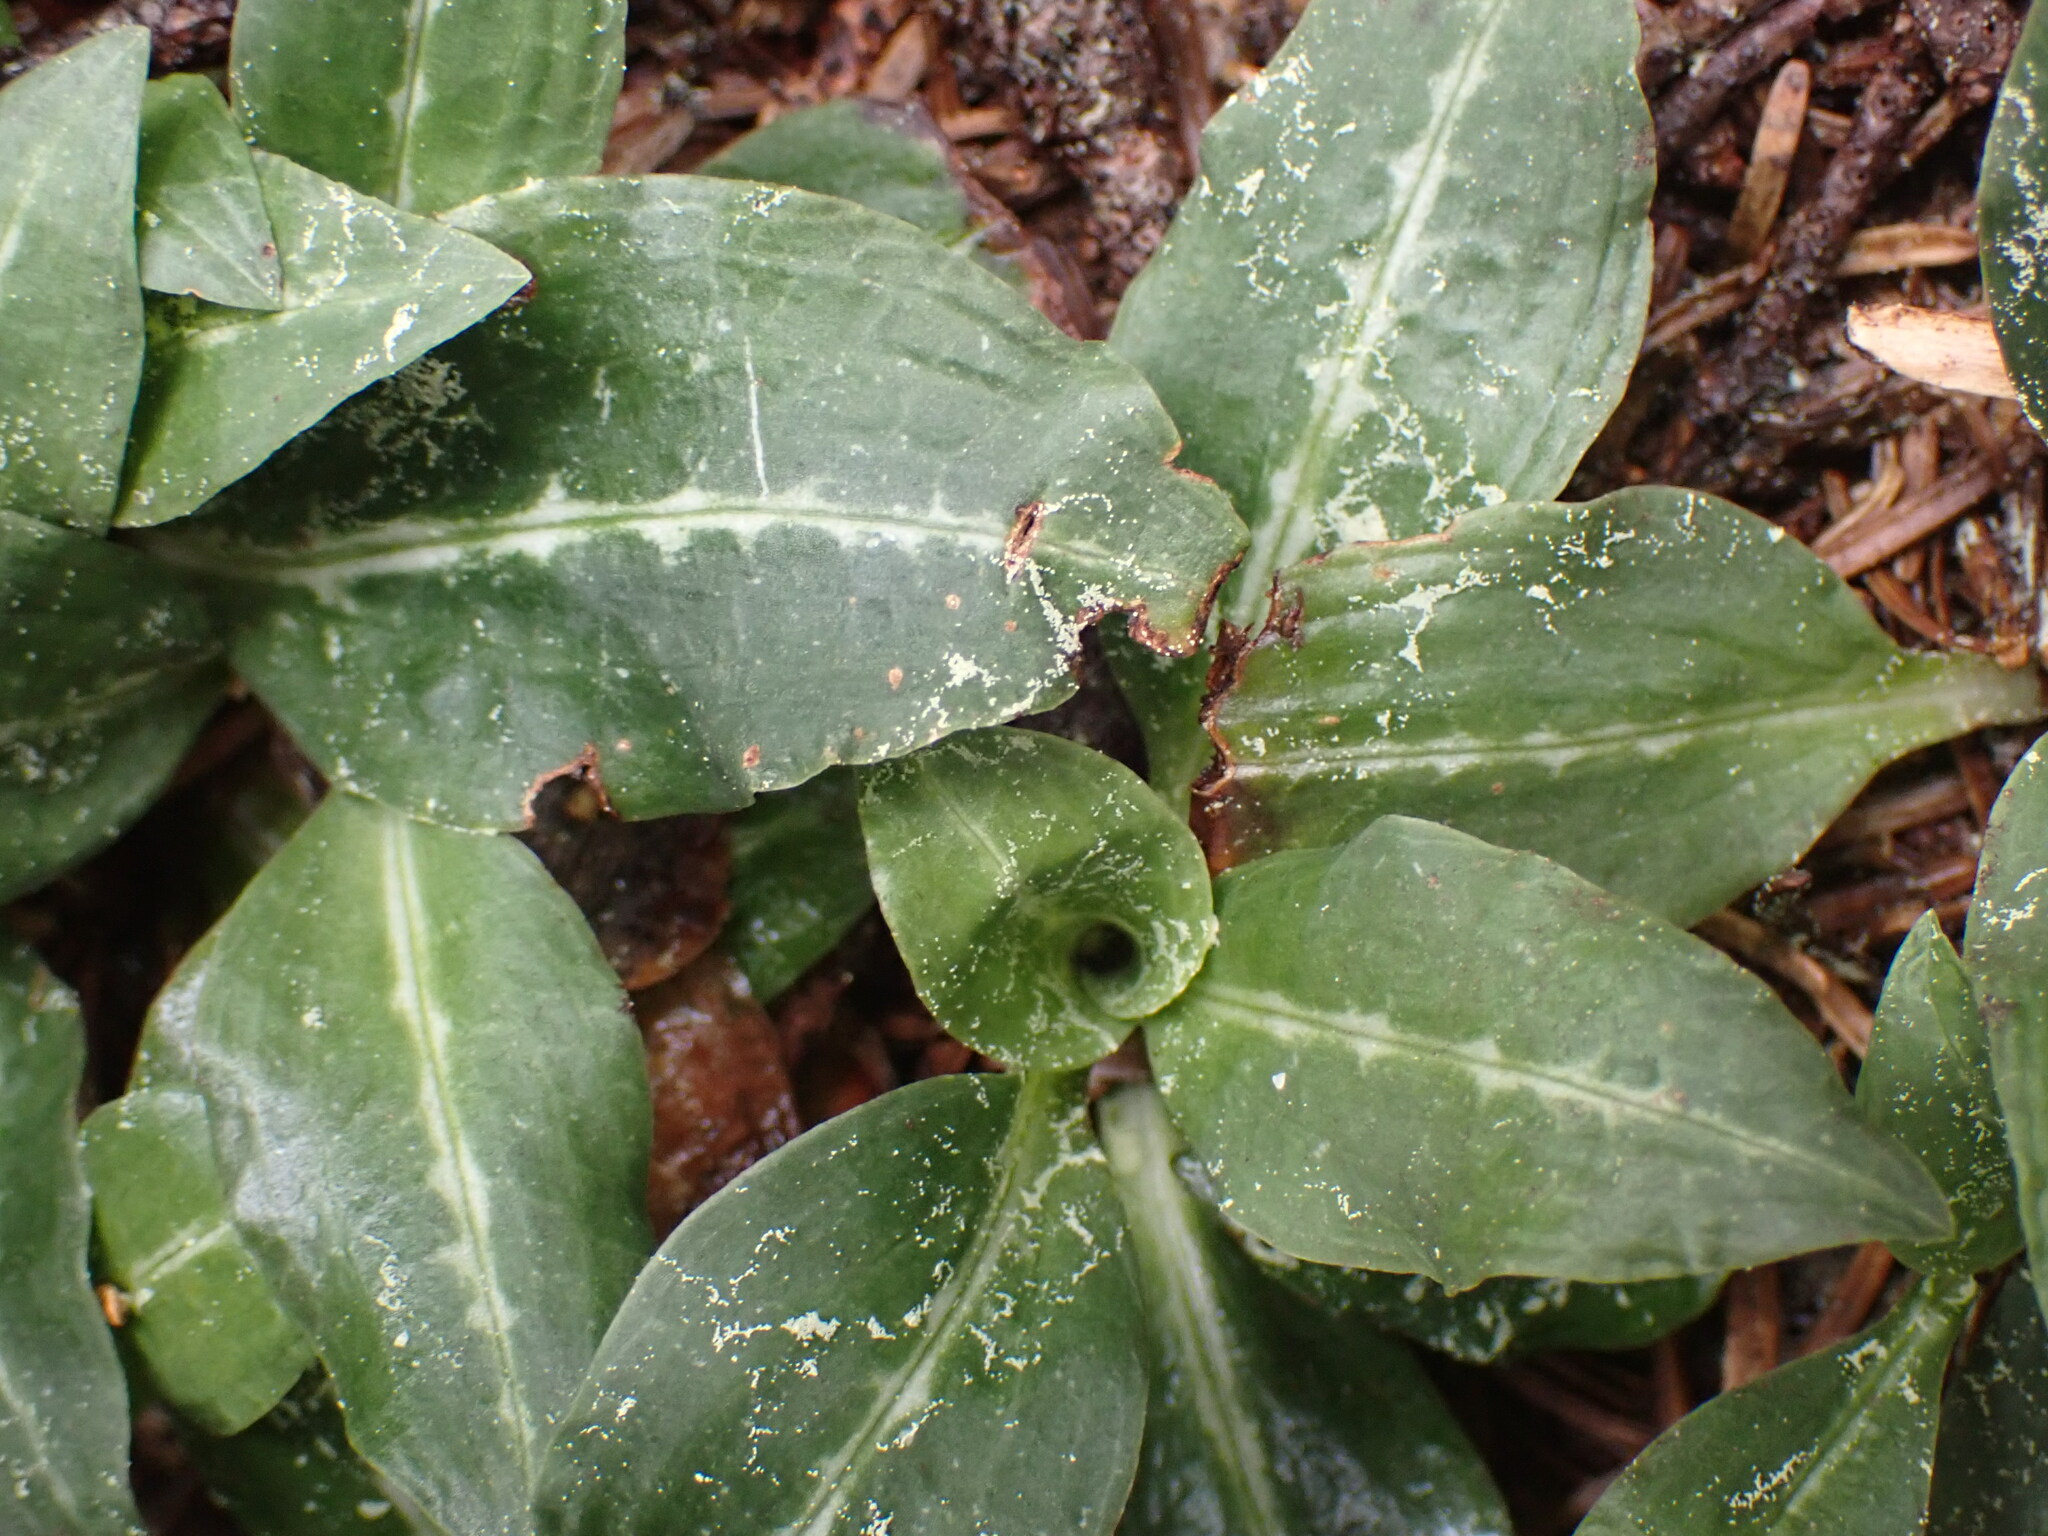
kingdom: Plantae
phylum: Tracheophyta
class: Liliopsida
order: Asparagales
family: Orchidaceae
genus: Goodyera
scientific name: Goodyera oblongifolia
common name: Giant rattlesnake-plantain
